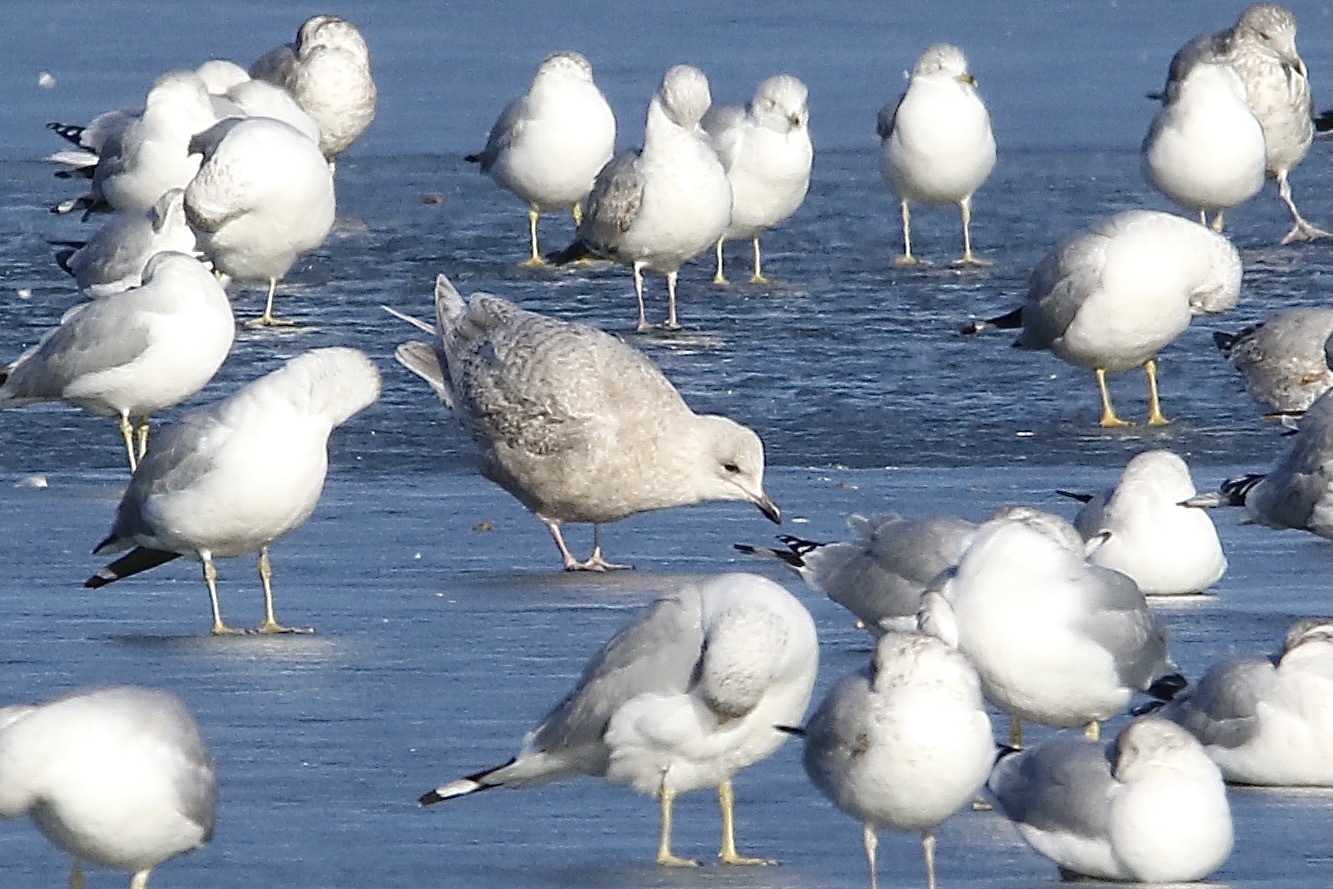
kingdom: Animalia
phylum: Chordata
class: Aves
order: Charadriiformes
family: Laridae
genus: Larus
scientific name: Larus glaucoides
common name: Iceland gull
